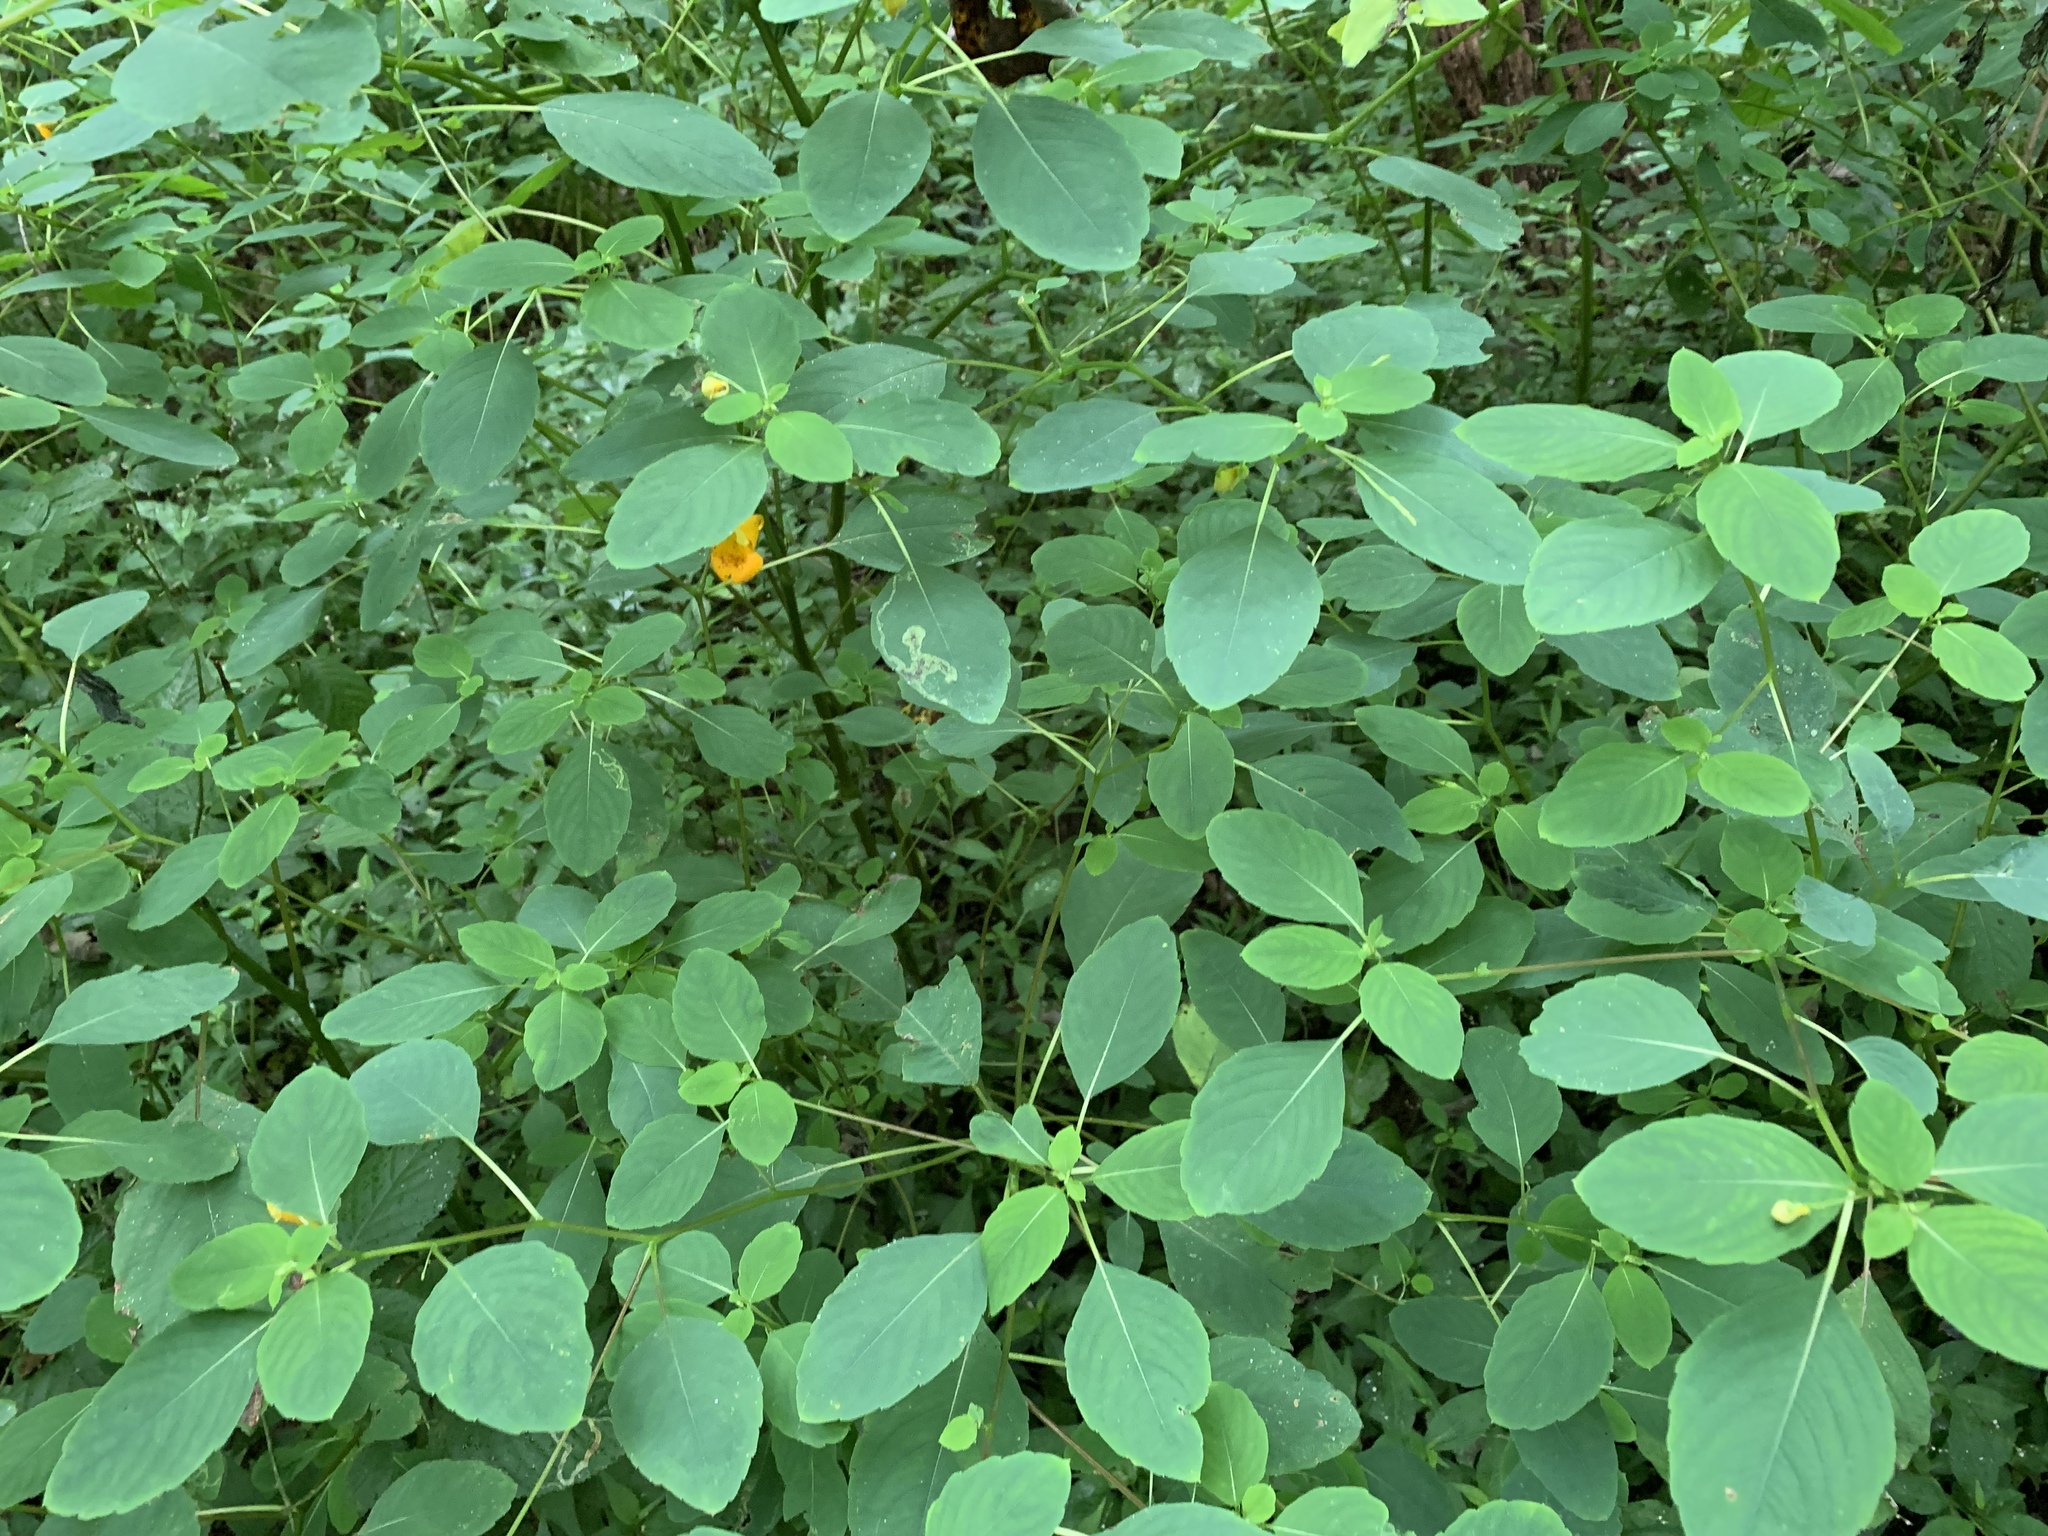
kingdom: Plantae
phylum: Tracheophyta
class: Magnoliopsida
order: Ericales
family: Balsaminaceae
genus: Impatiens
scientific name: Impatiens capensis
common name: Orange balsam
